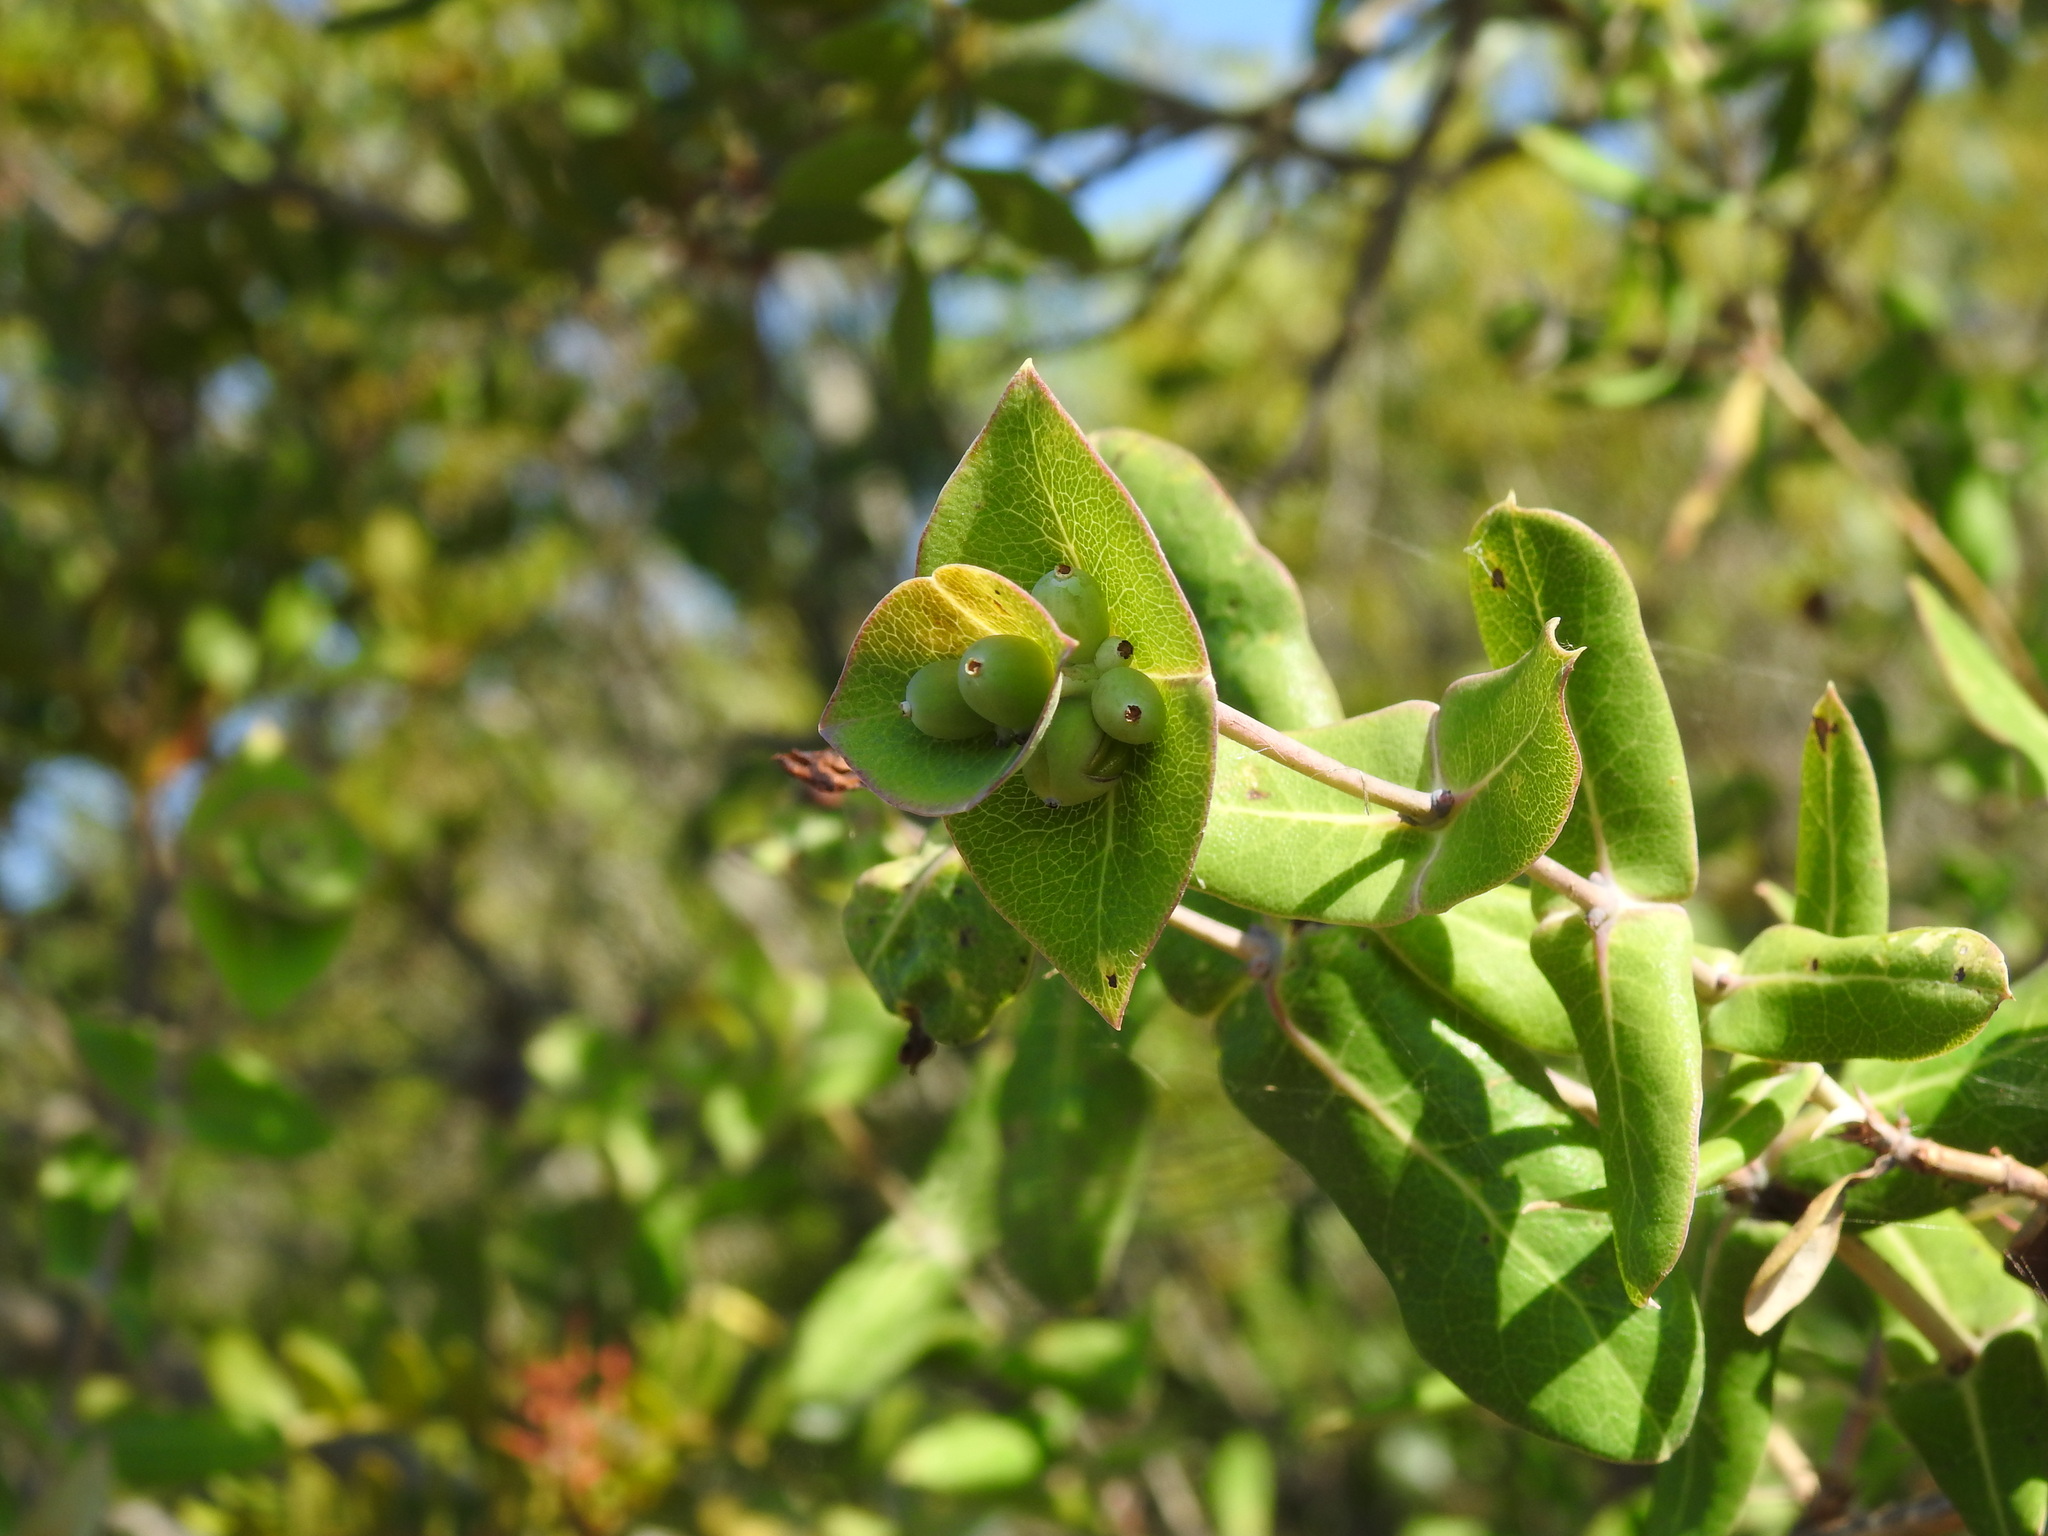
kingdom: Plantae
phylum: Tracheophyta
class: Magnoliopsida
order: Dipsacales
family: Caprifoliaceae
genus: Lonicera
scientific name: Lonicera implexa
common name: Minorca honeysuckle
